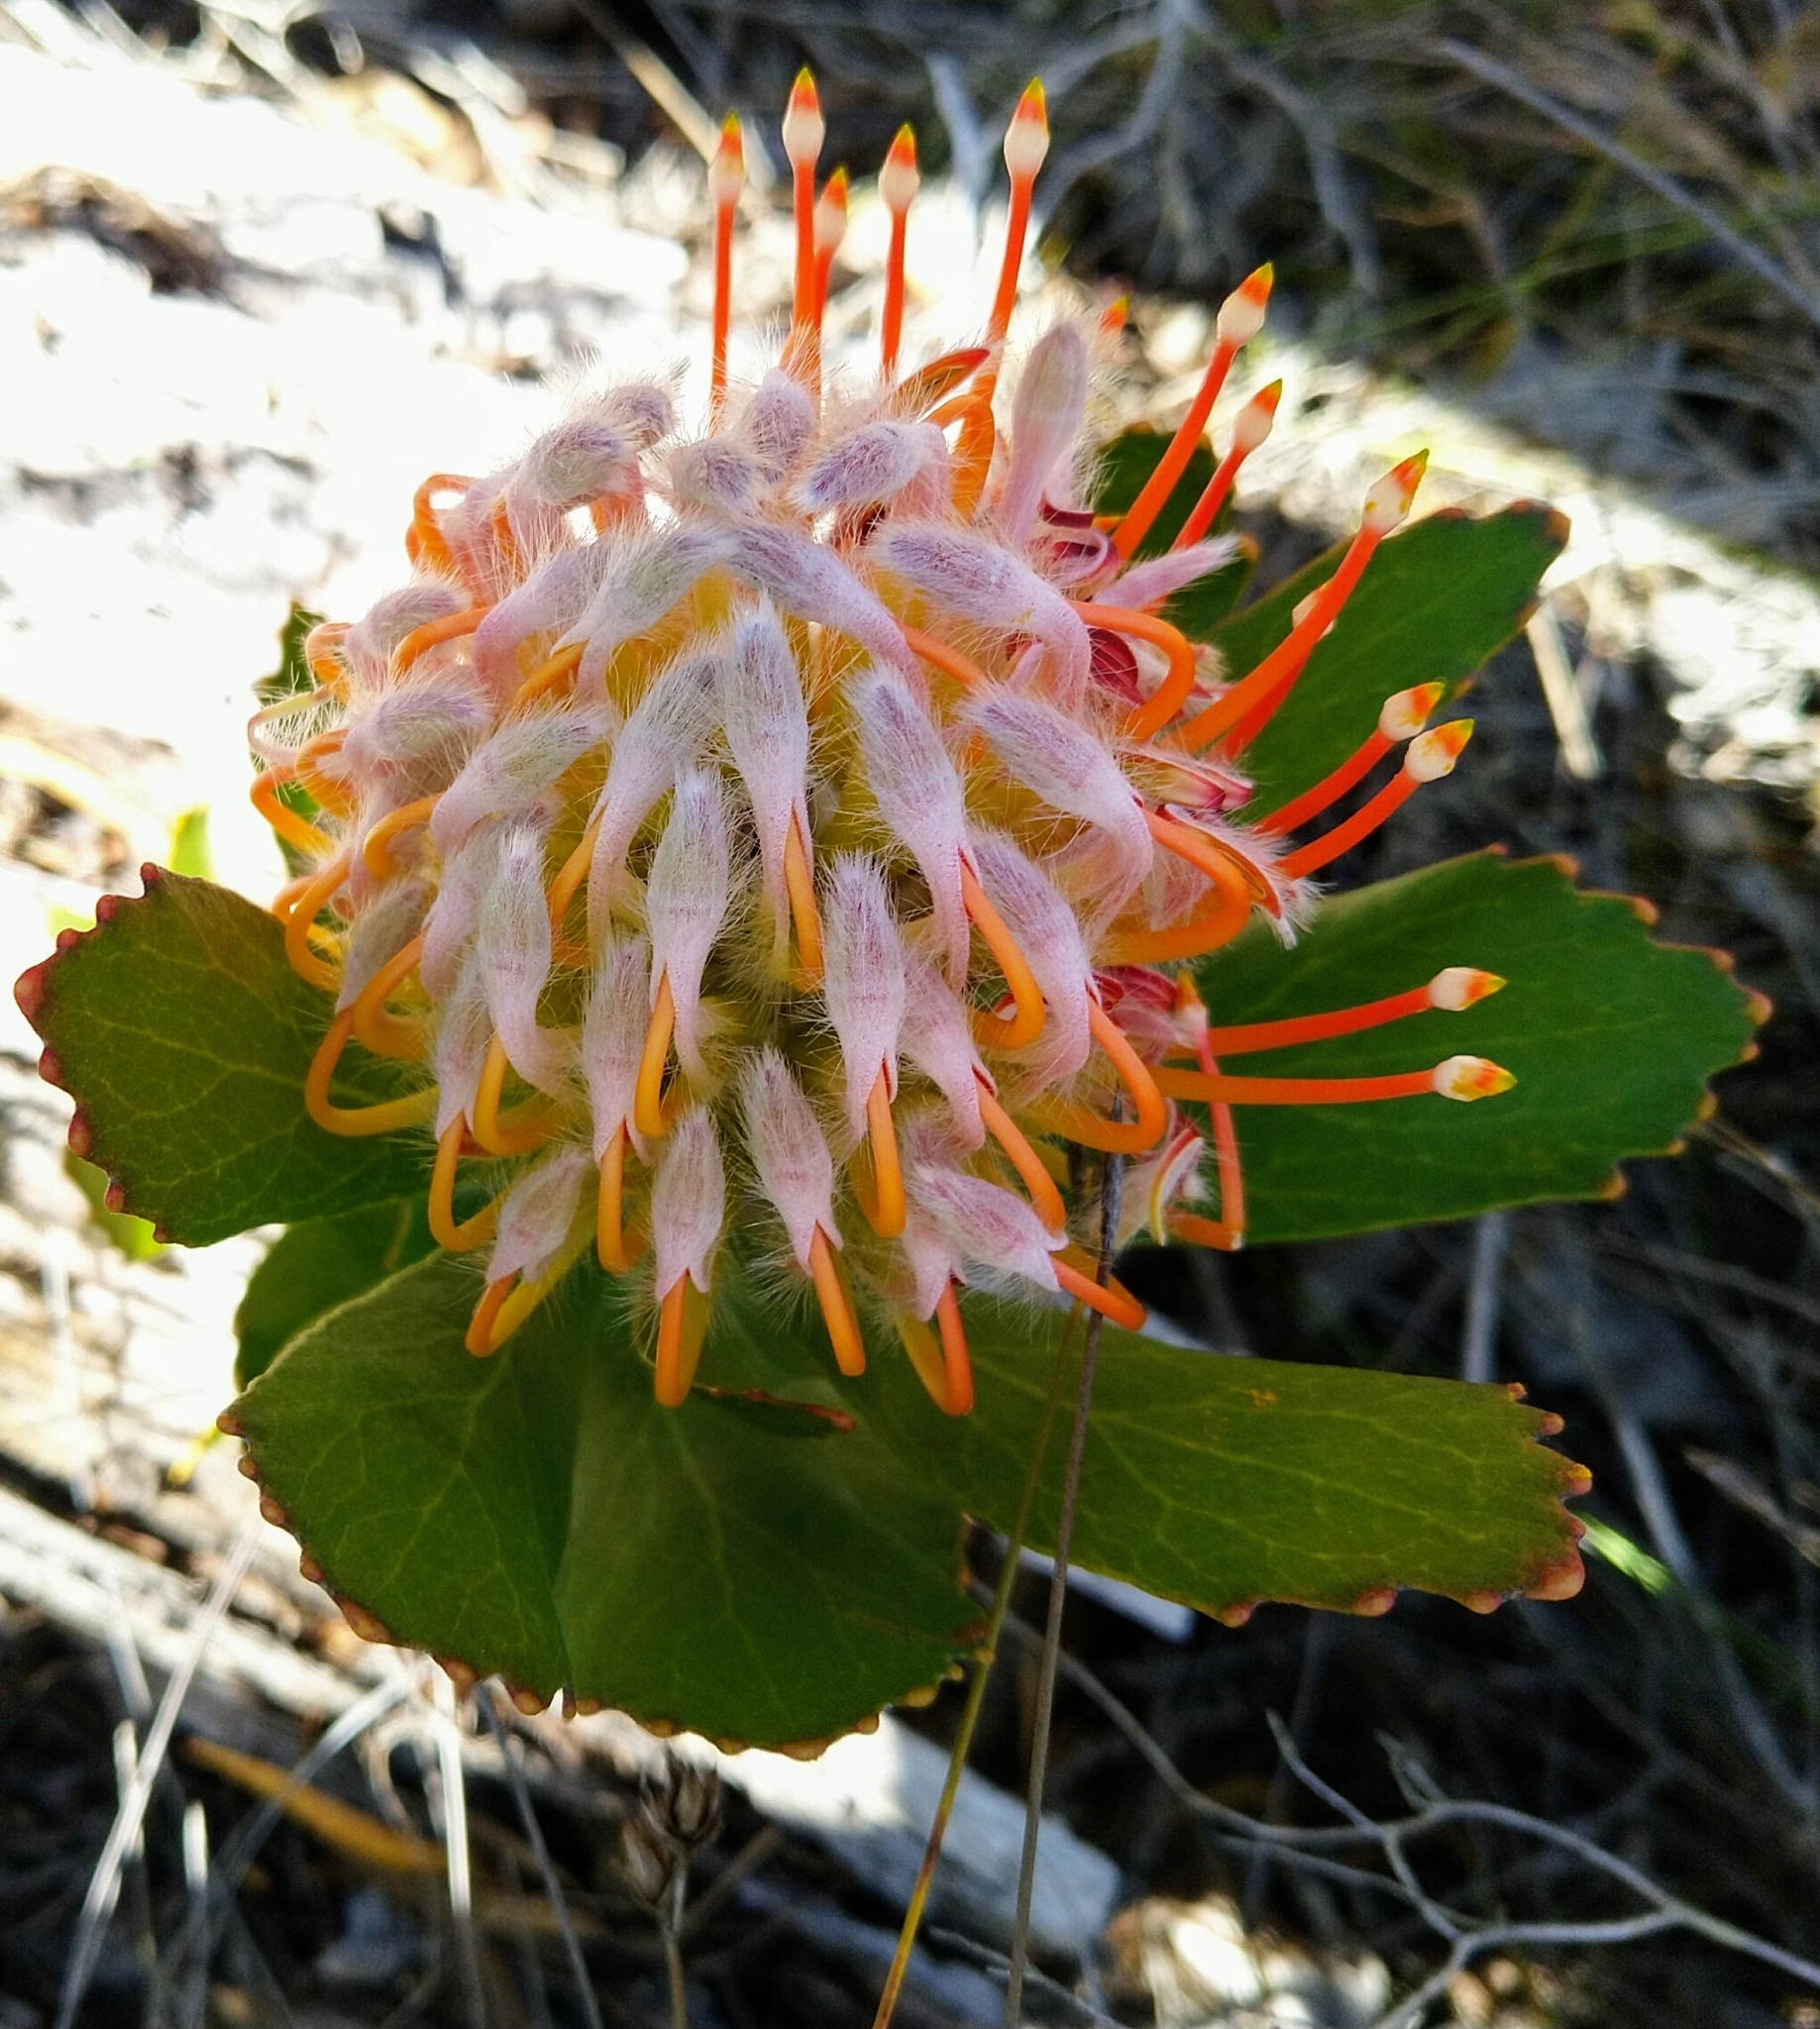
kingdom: Plantae
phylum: Tracheophyta
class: Magnoliopsida
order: Proteales
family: Proteaceae
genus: Leucospermum
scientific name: Leucospermum glabrum
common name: Outeniqua pincushion
